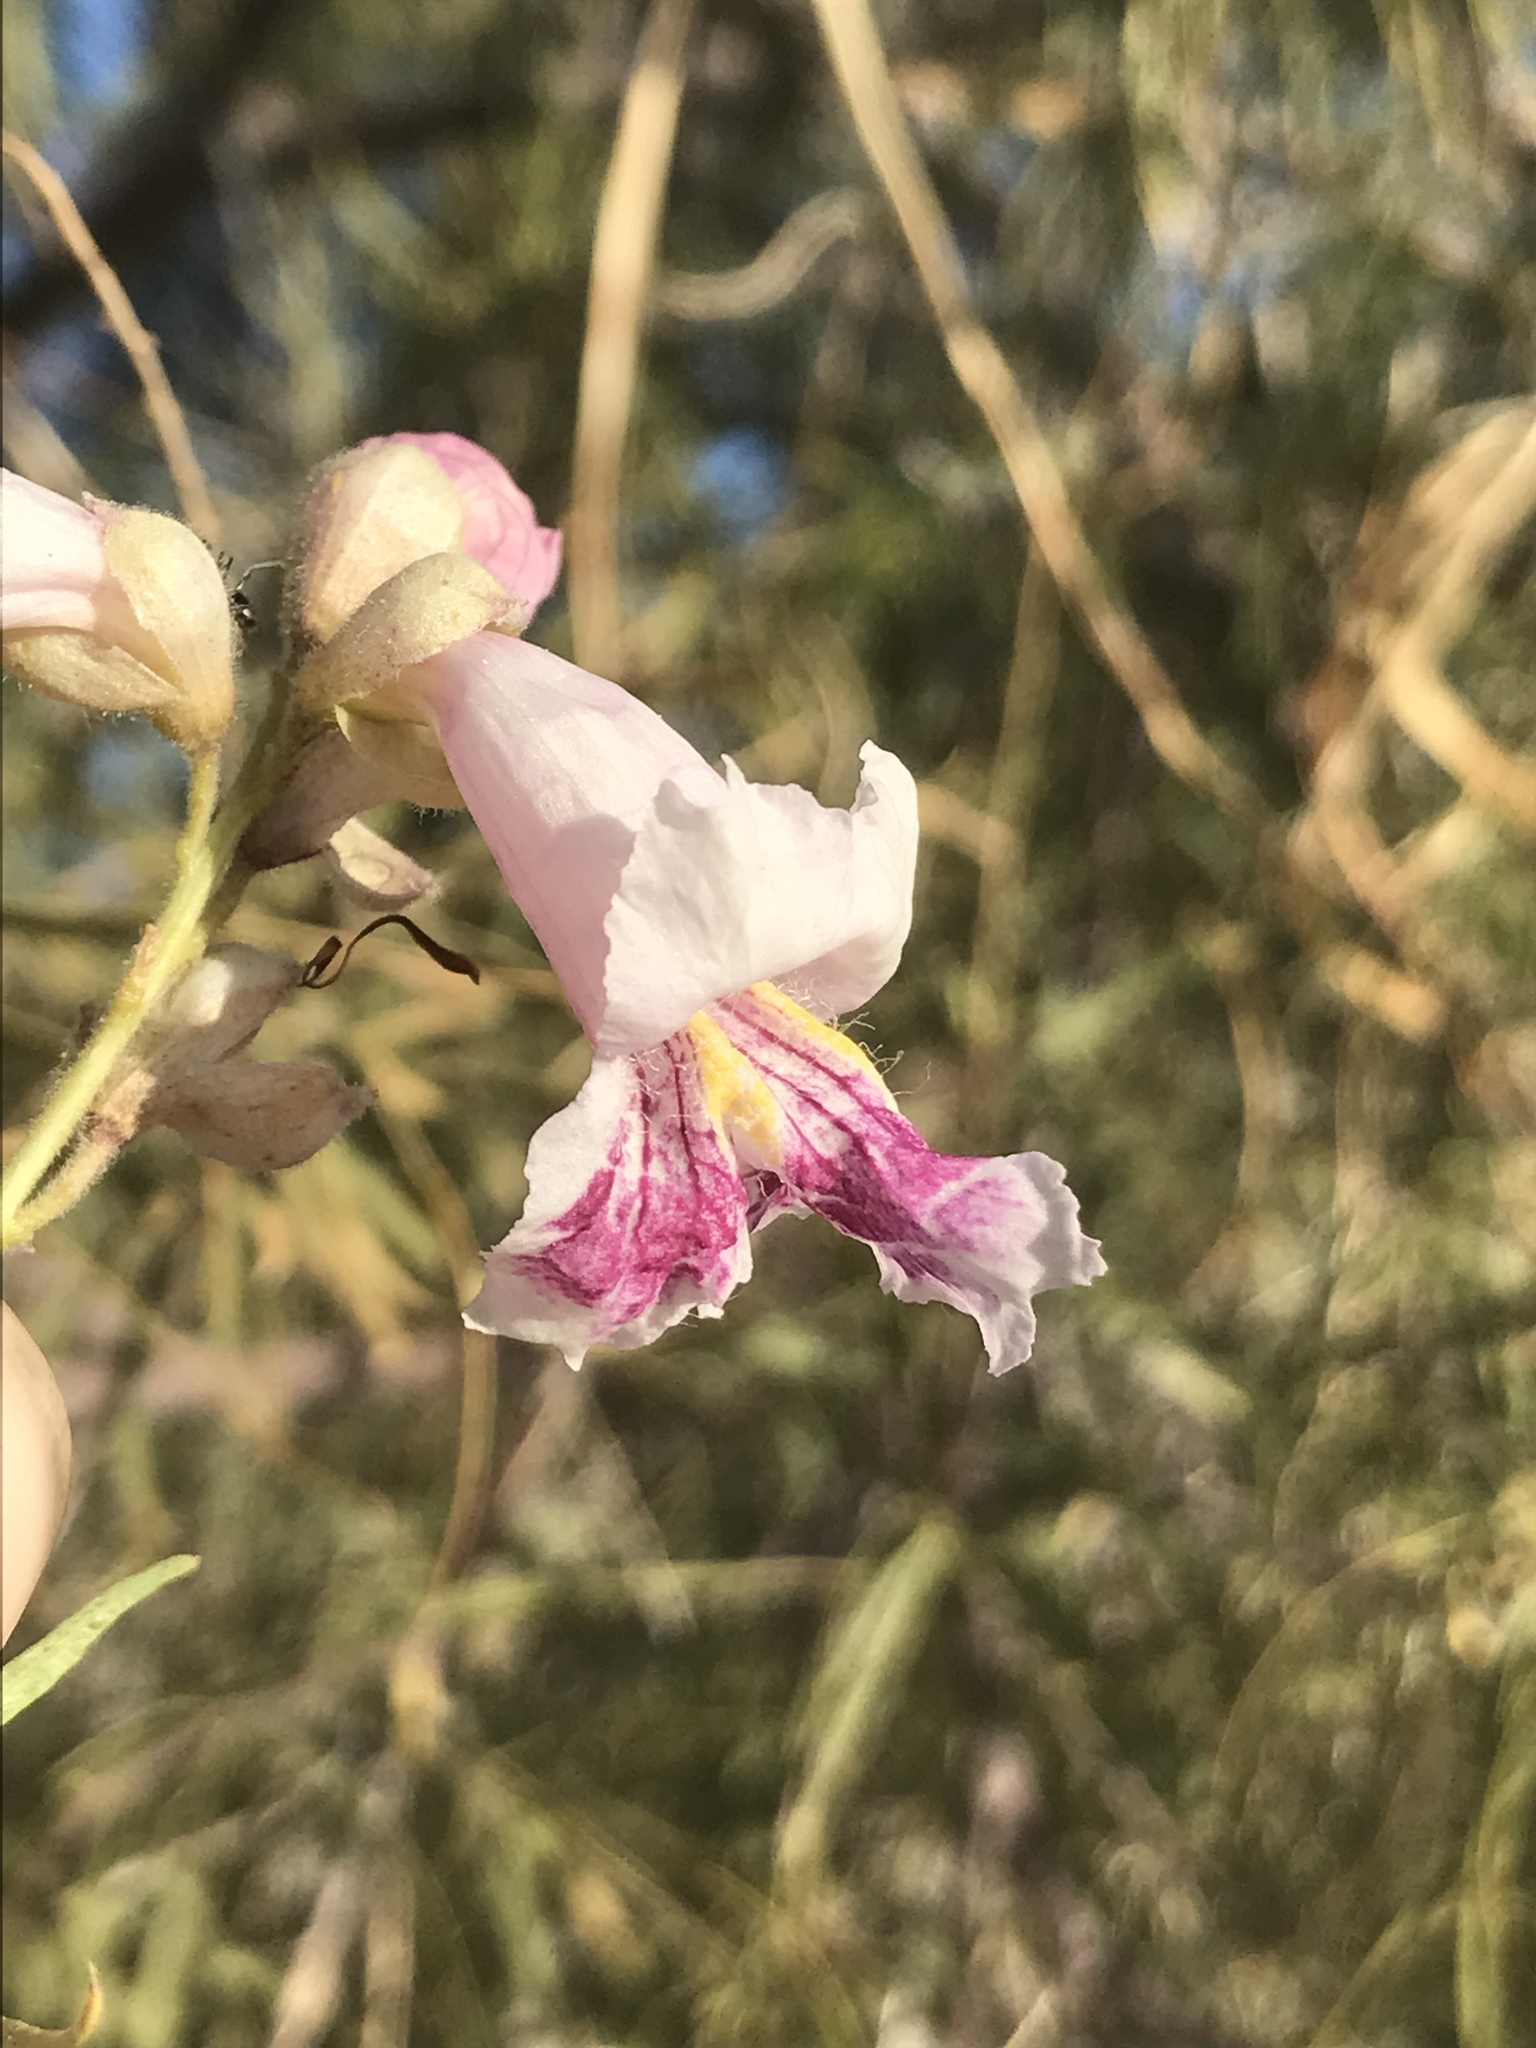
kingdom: Plantae
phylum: Tracheophyta
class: Magnoliopsida
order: Lamiales
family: Bignoniaceae
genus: Chilopsis
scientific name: Chilopsis linearis
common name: Desert-willow
